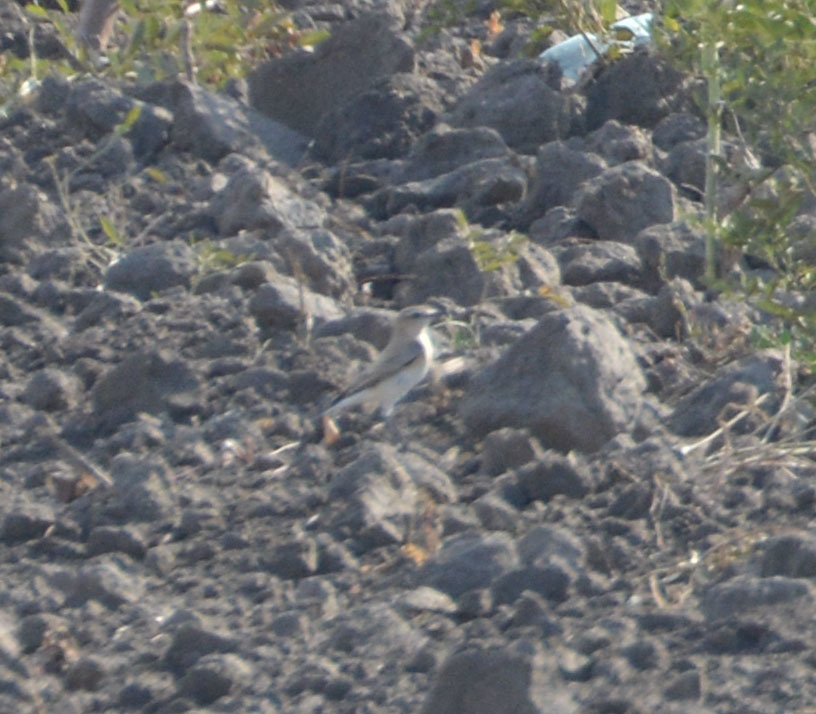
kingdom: Animalia
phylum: Chordata
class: Aves
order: Passeriformes
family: Muscicapidae
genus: Oenanthe
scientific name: Oenanthe oenanthe
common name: Northern wheatear
